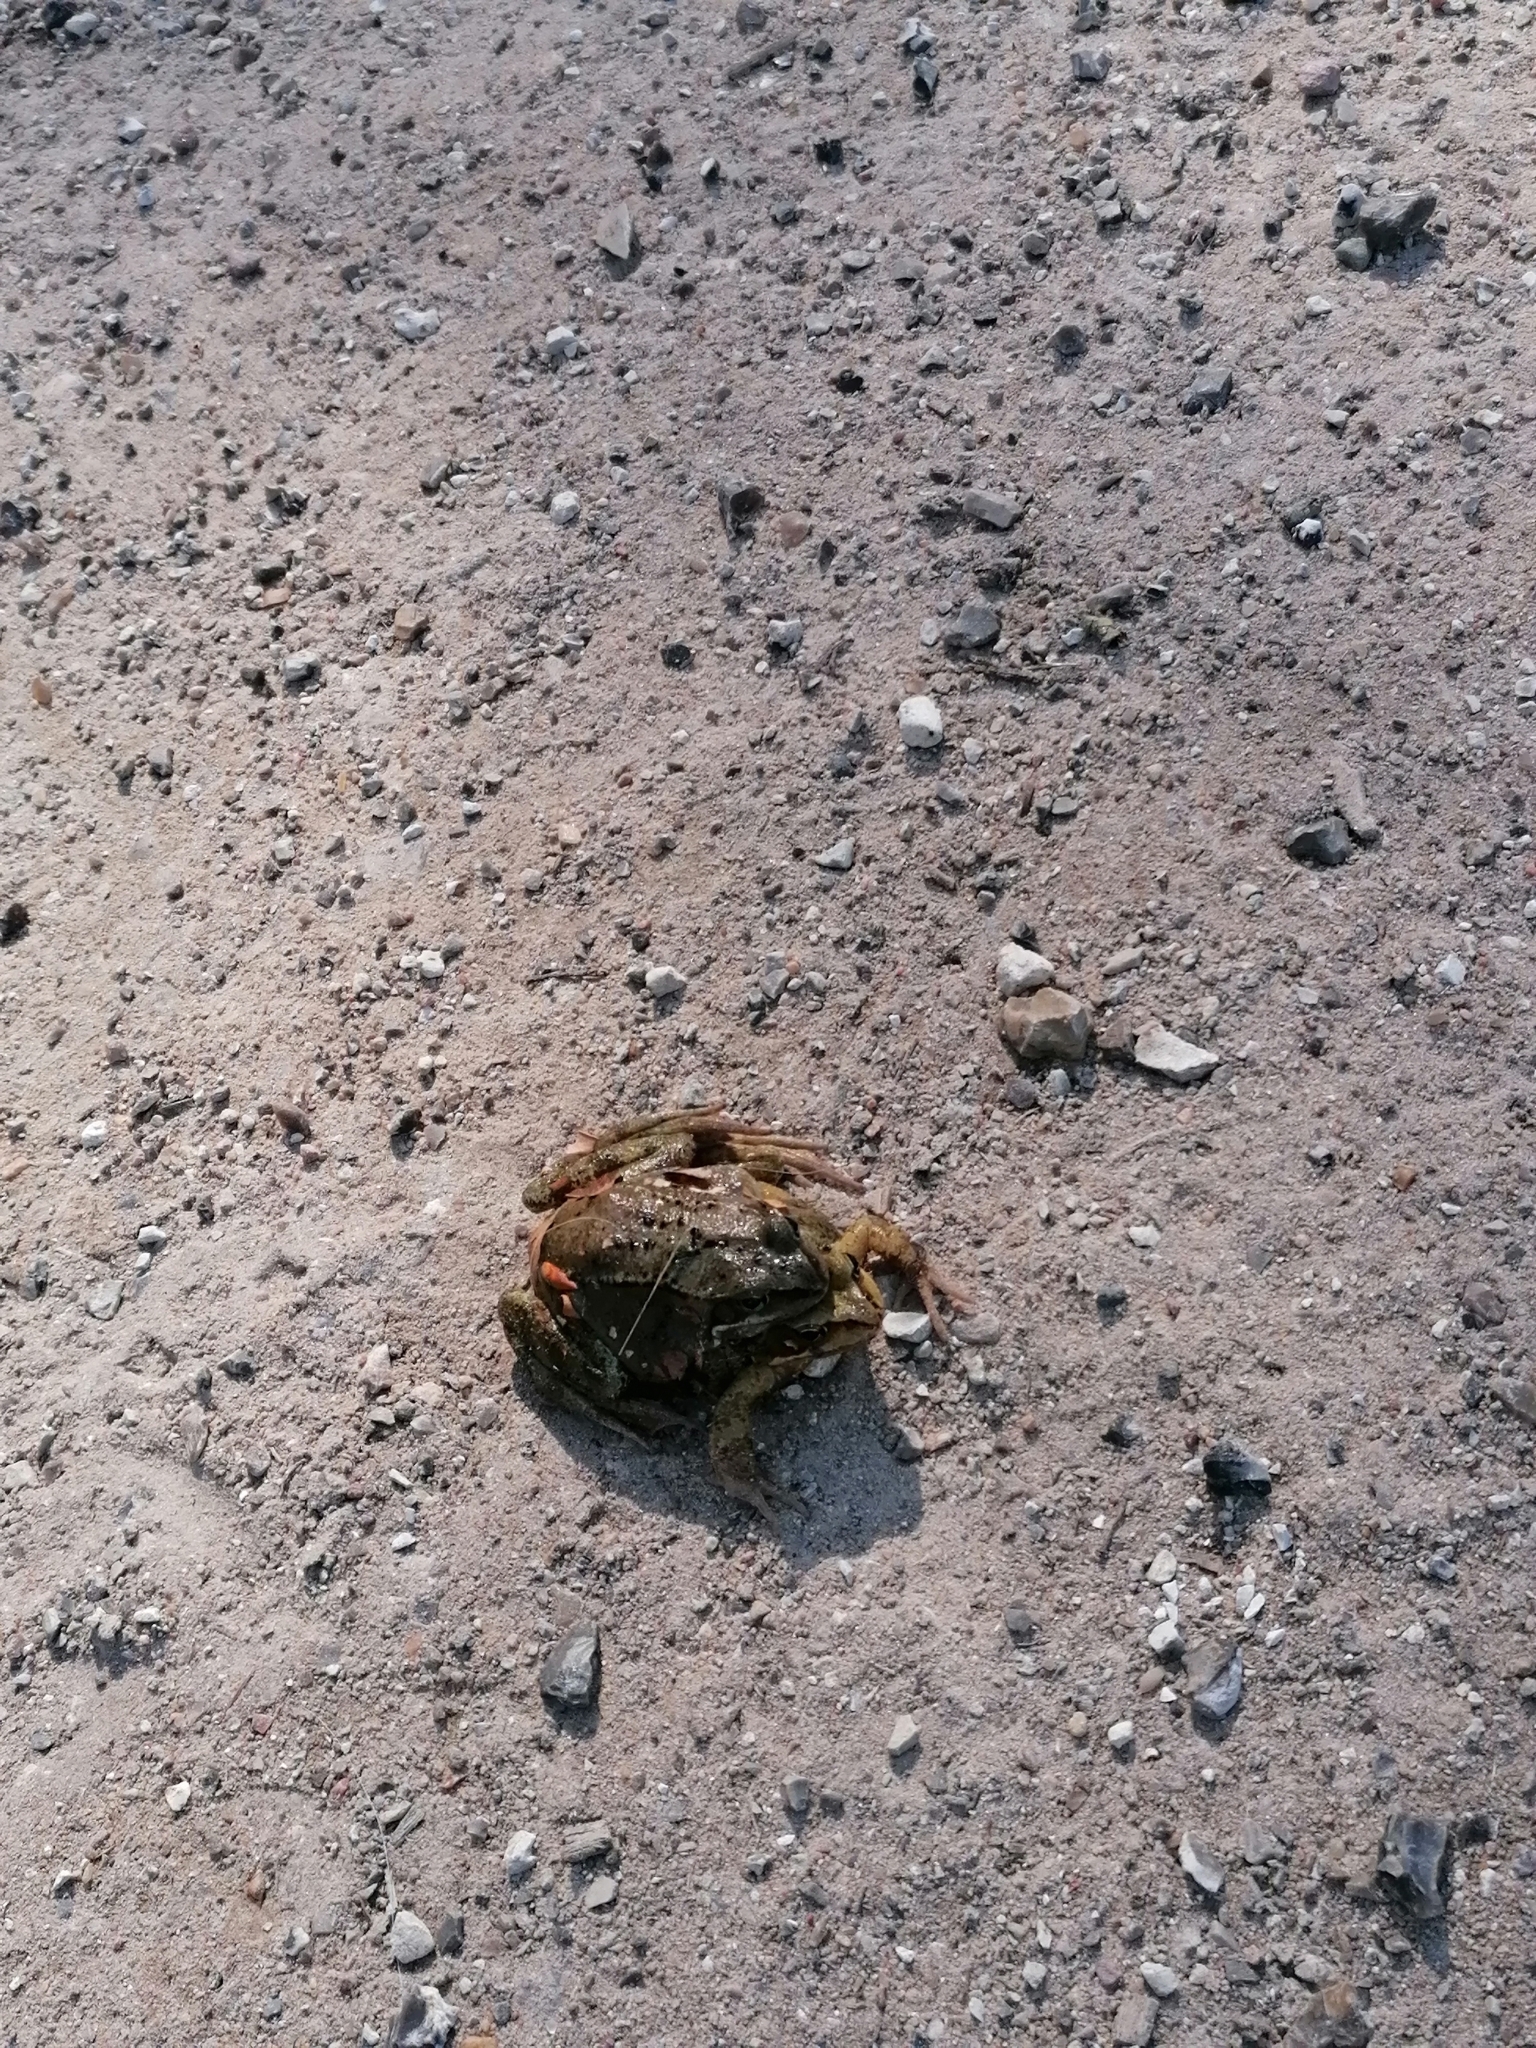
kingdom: Animalia
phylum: Chordata
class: Amphibia
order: Anura
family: Ranidae
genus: Rana
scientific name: Rana temporaria
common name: Common frog
